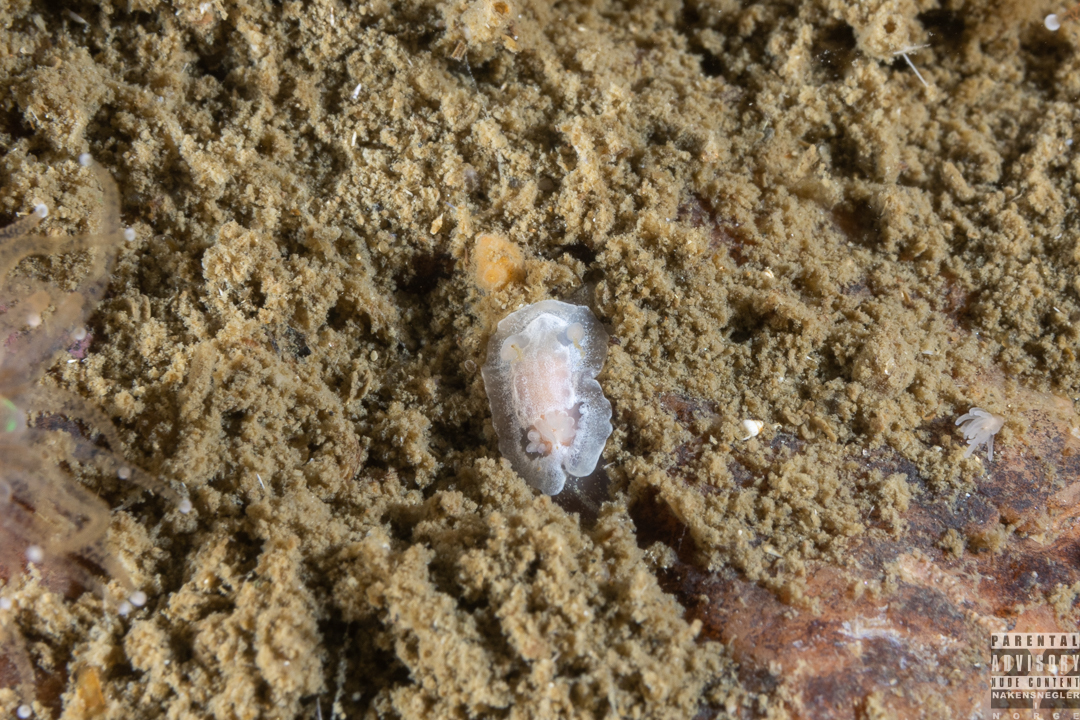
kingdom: Animalia
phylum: Mollusca
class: Gastropoda
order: Nudibranchia
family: Goniodorididae
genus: Okenia
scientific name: Okenia
